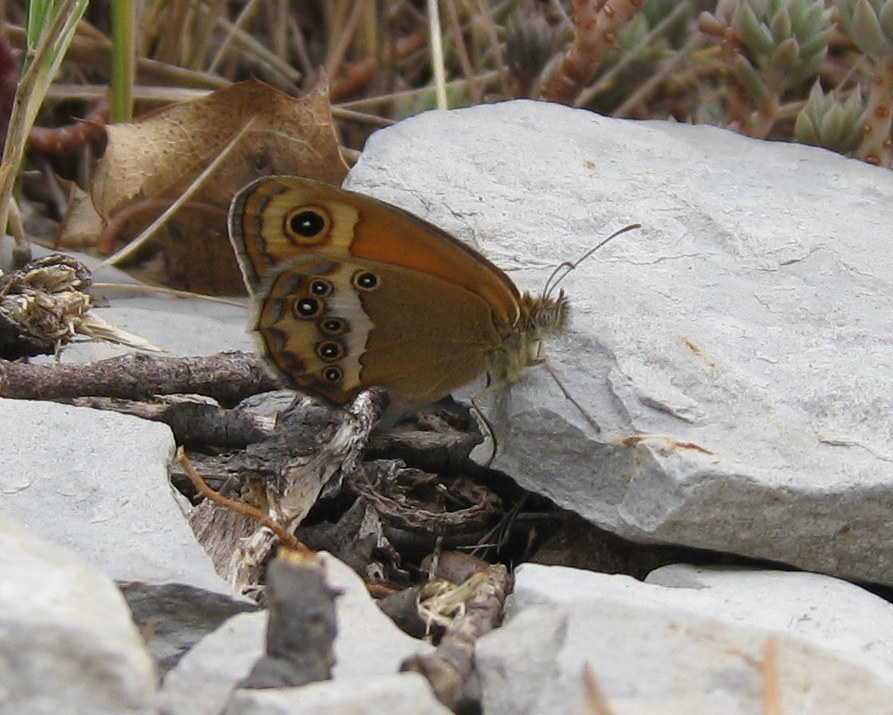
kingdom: Animalia
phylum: Arthropoda
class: Insecta
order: Lepidoptera
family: Nymphalidae
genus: Coenonympha
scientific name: Coenonympha dorus
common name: Dusky heath
